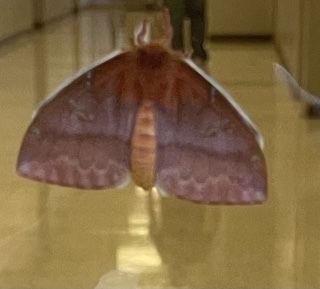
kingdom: Animalia
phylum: Arthropoda
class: Insecta
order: Lepidoptera
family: Saturniidae
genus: Automeris
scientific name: Automeris io
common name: Io moth
